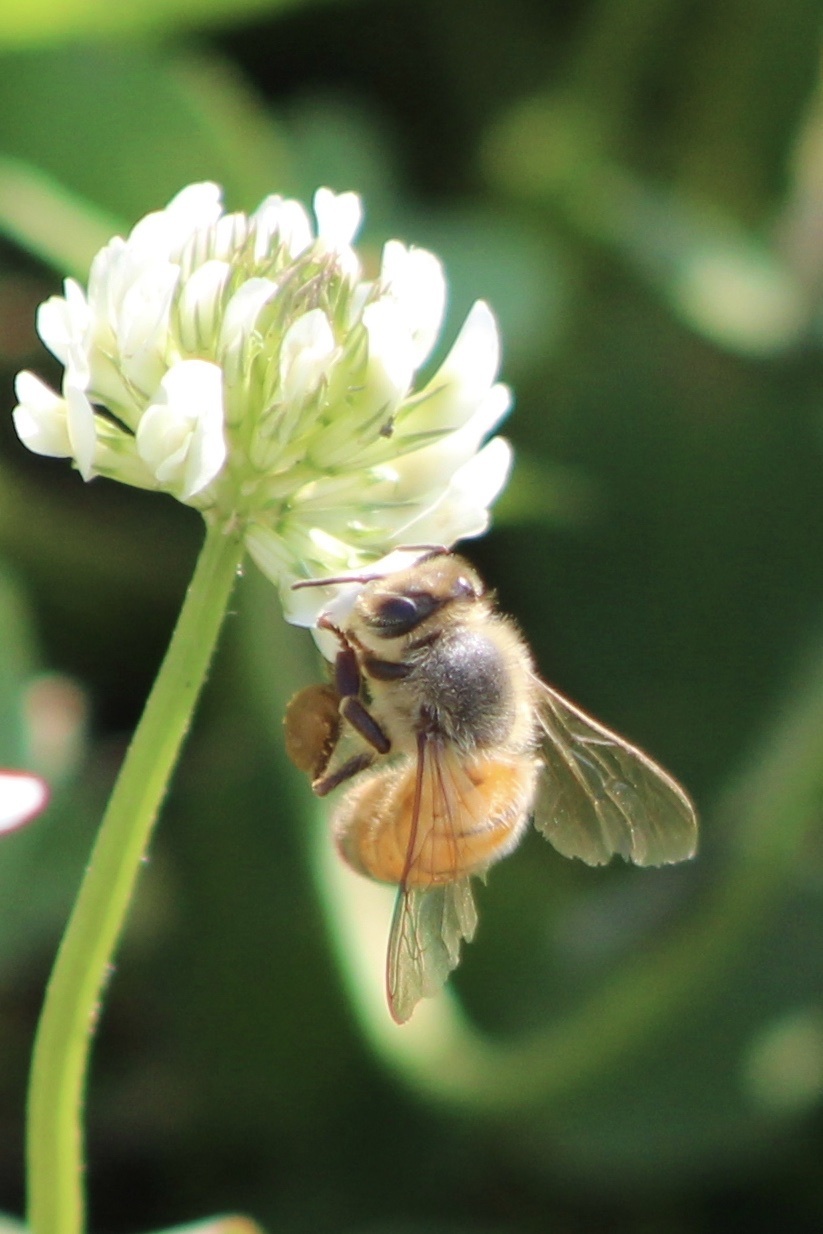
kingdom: Animalia
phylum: Arthropoda
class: Insecta
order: Hymenoptera
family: Apidae
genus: Apis
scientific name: Apis mellifera
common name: Honey bee
